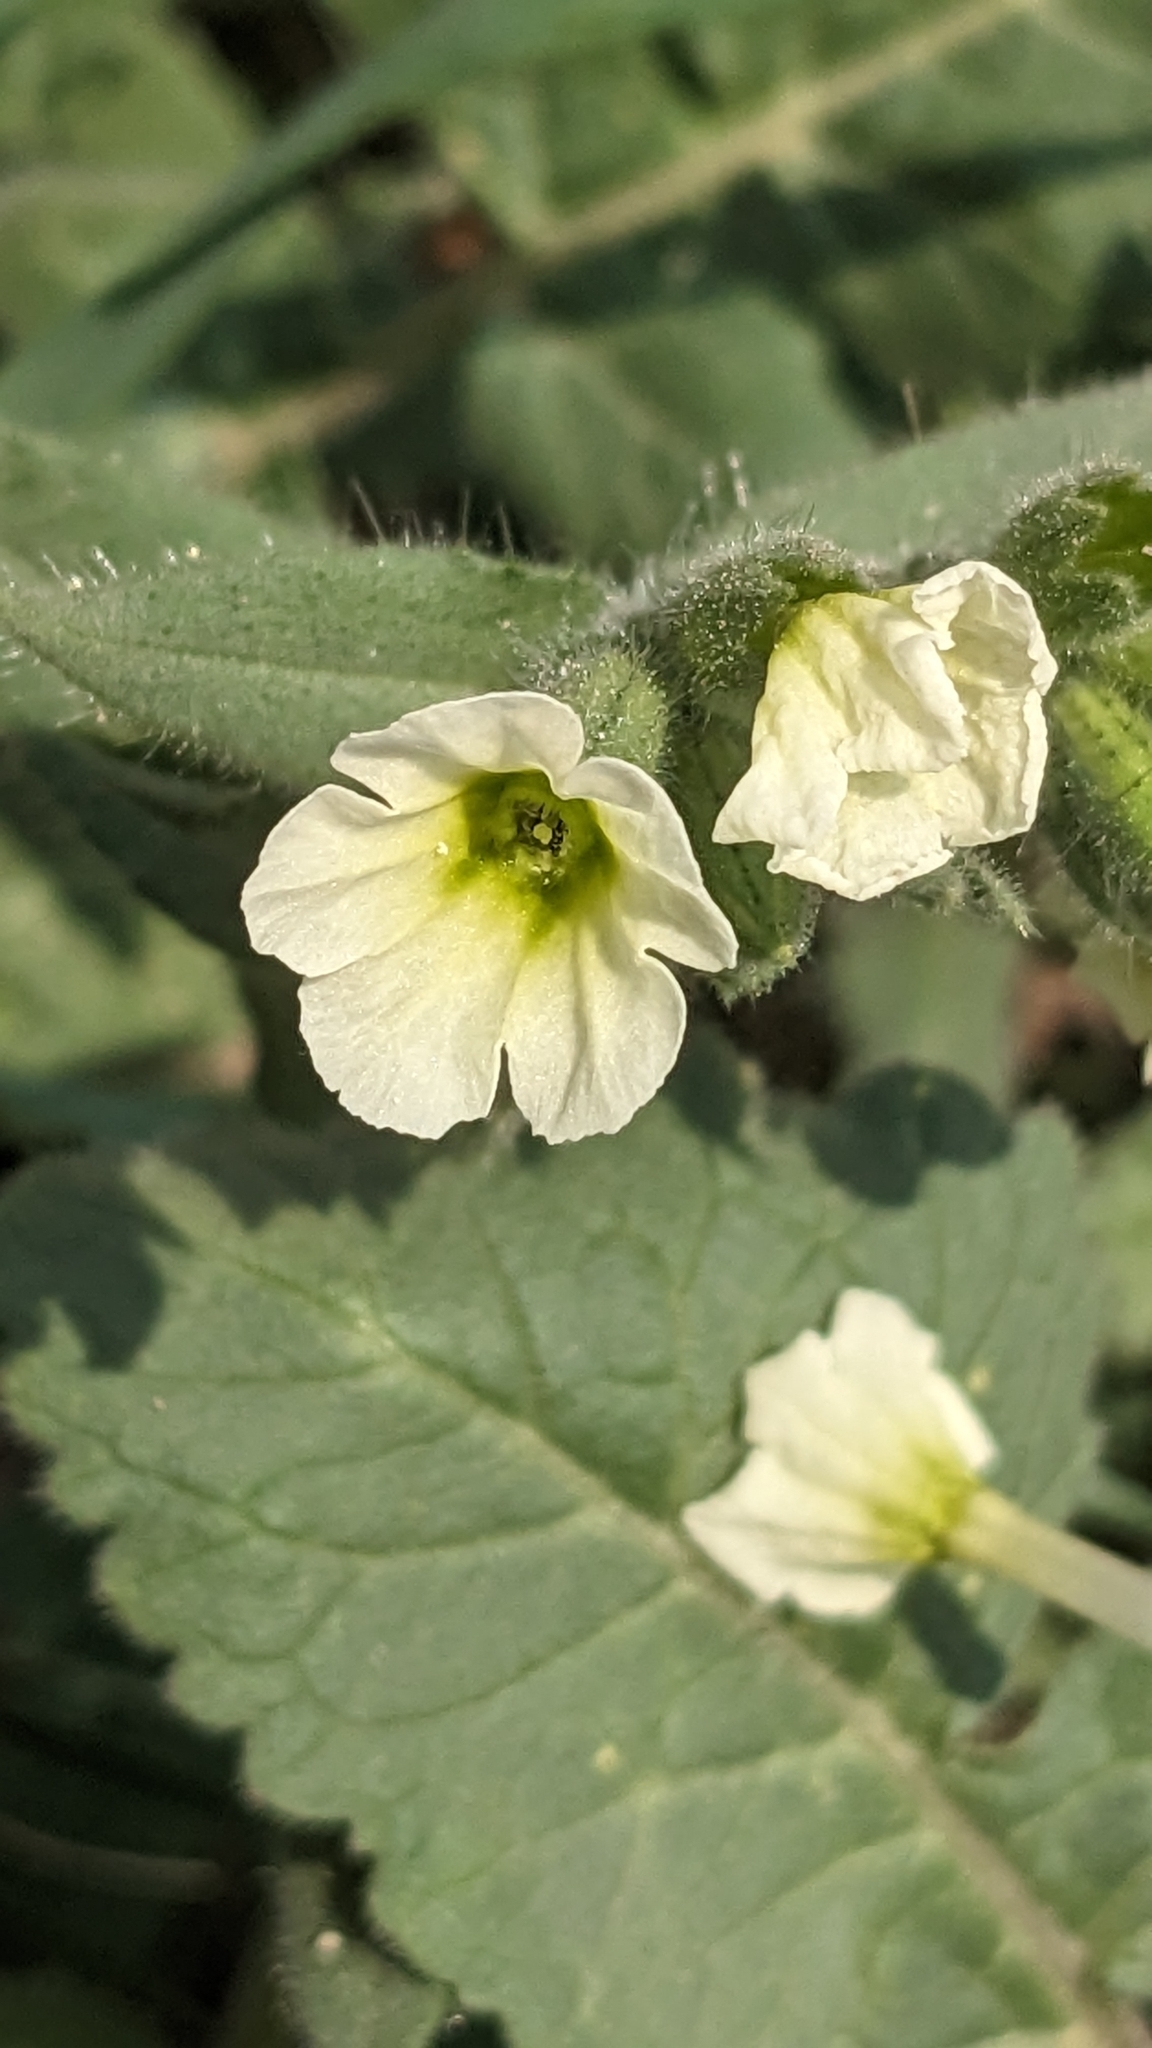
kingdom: Plantae
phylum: Tracheophyta
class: Magnoliopsida
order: Boraginales
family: Boraginaceae
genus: Nonea
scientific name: Nonea lutea
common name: Yellow nonea
